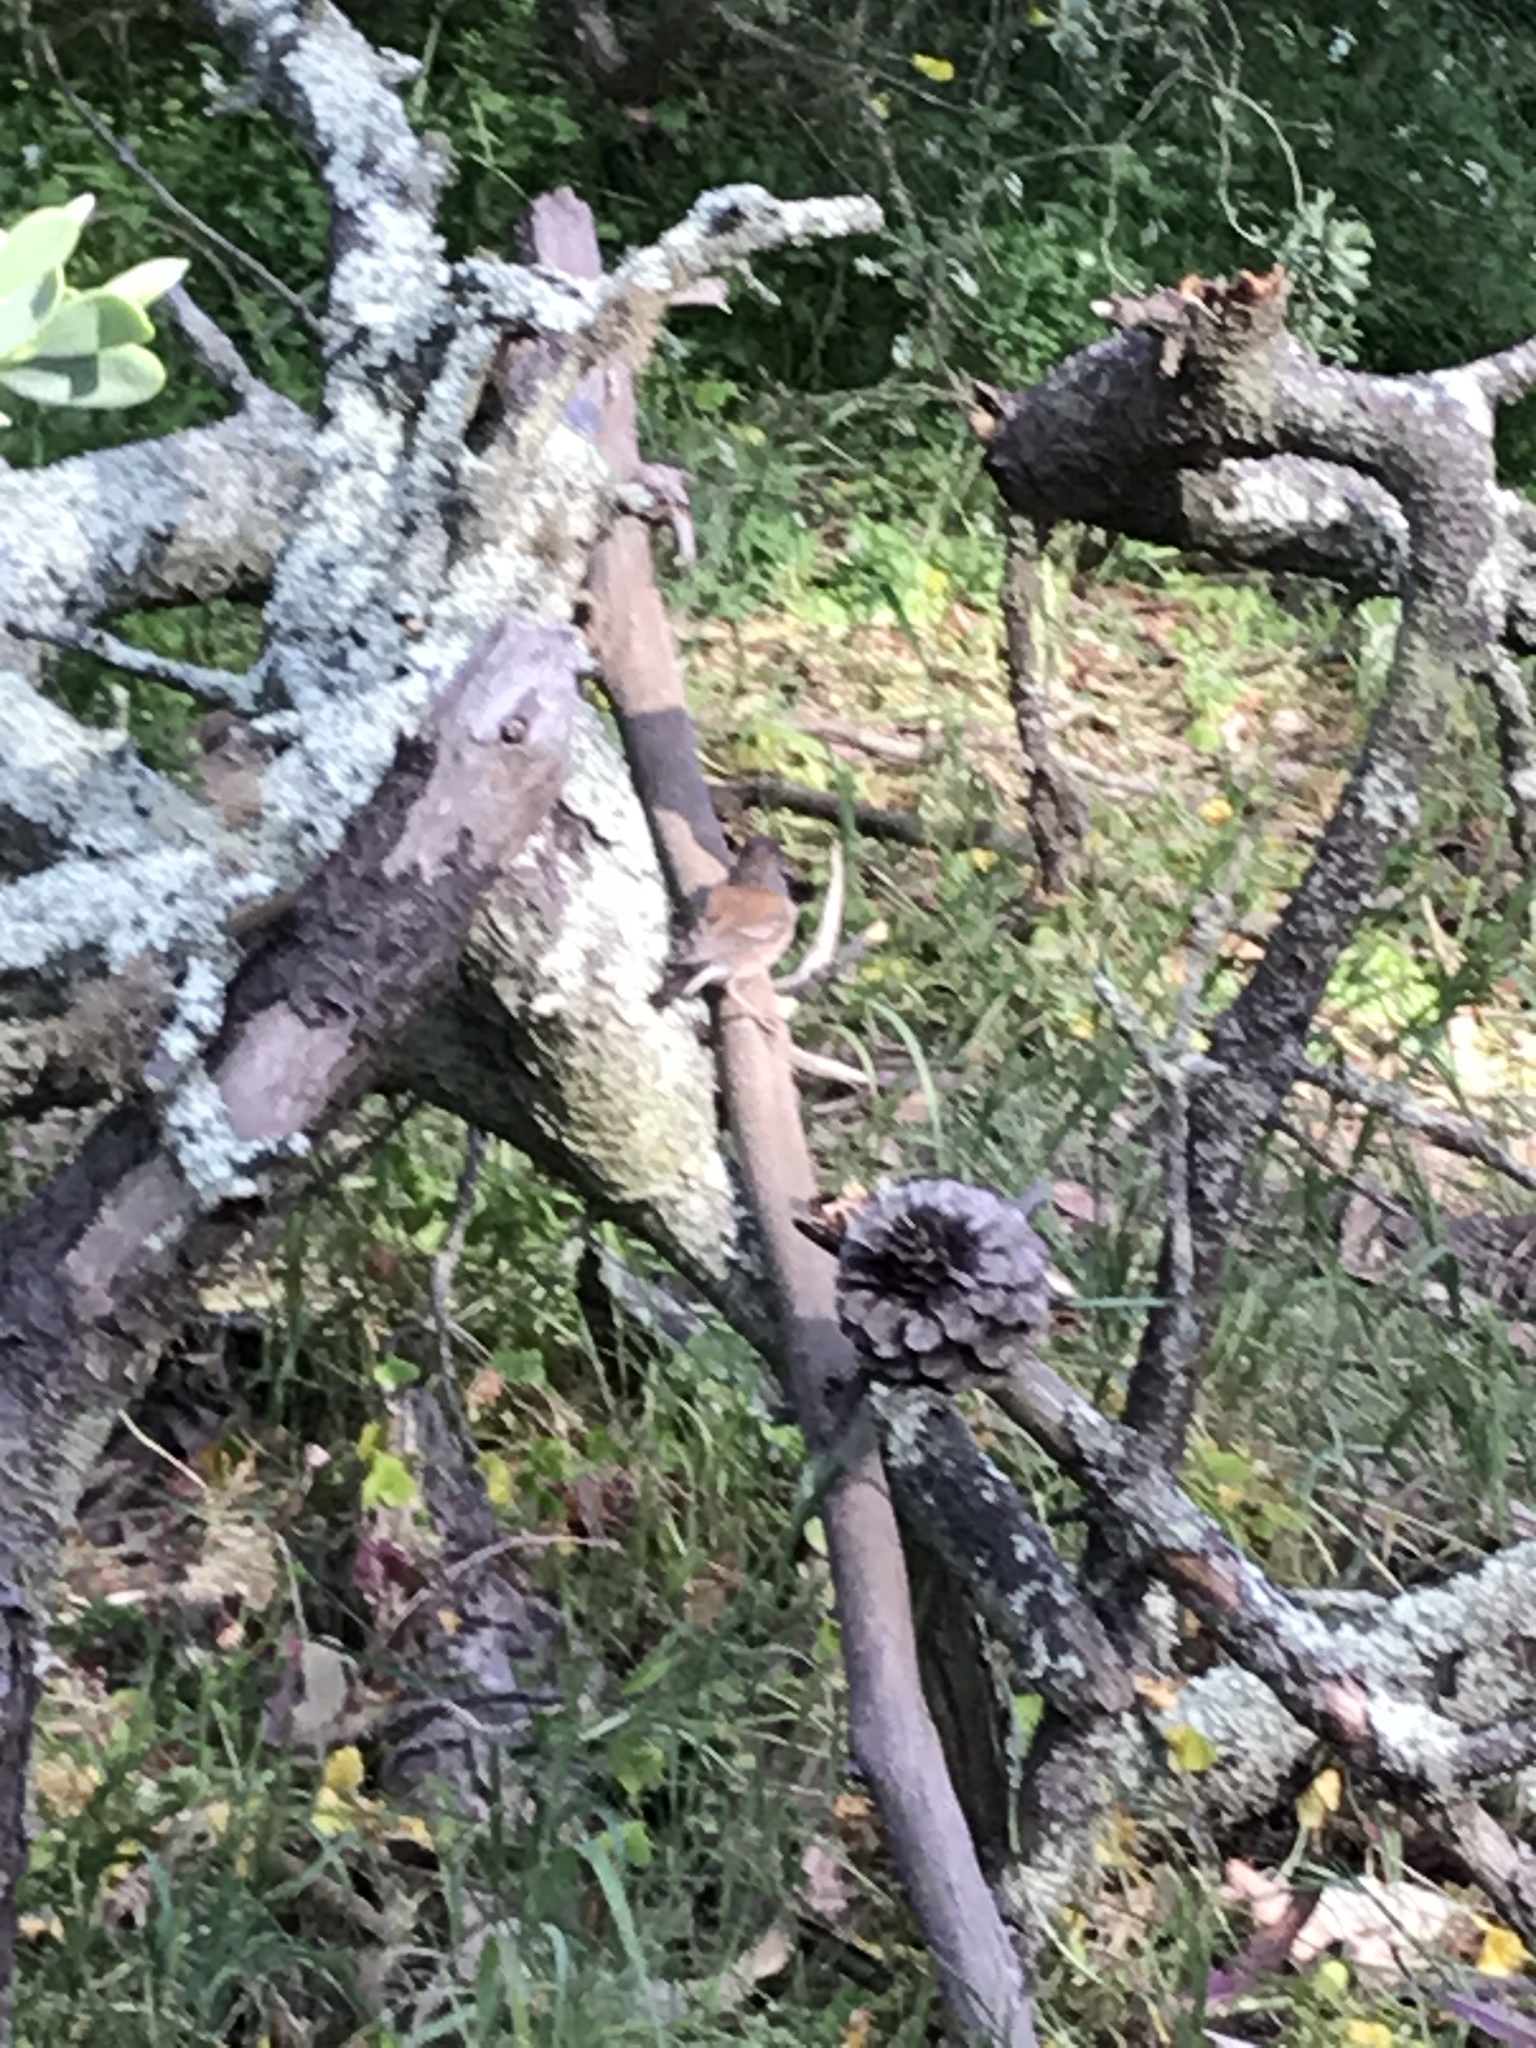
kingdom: Animalia
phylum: Chordata
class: Aves
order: Passeriformes
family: Passerellidae
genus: Junco
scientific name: Junco hyemalis
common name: Dark-eyed junco
